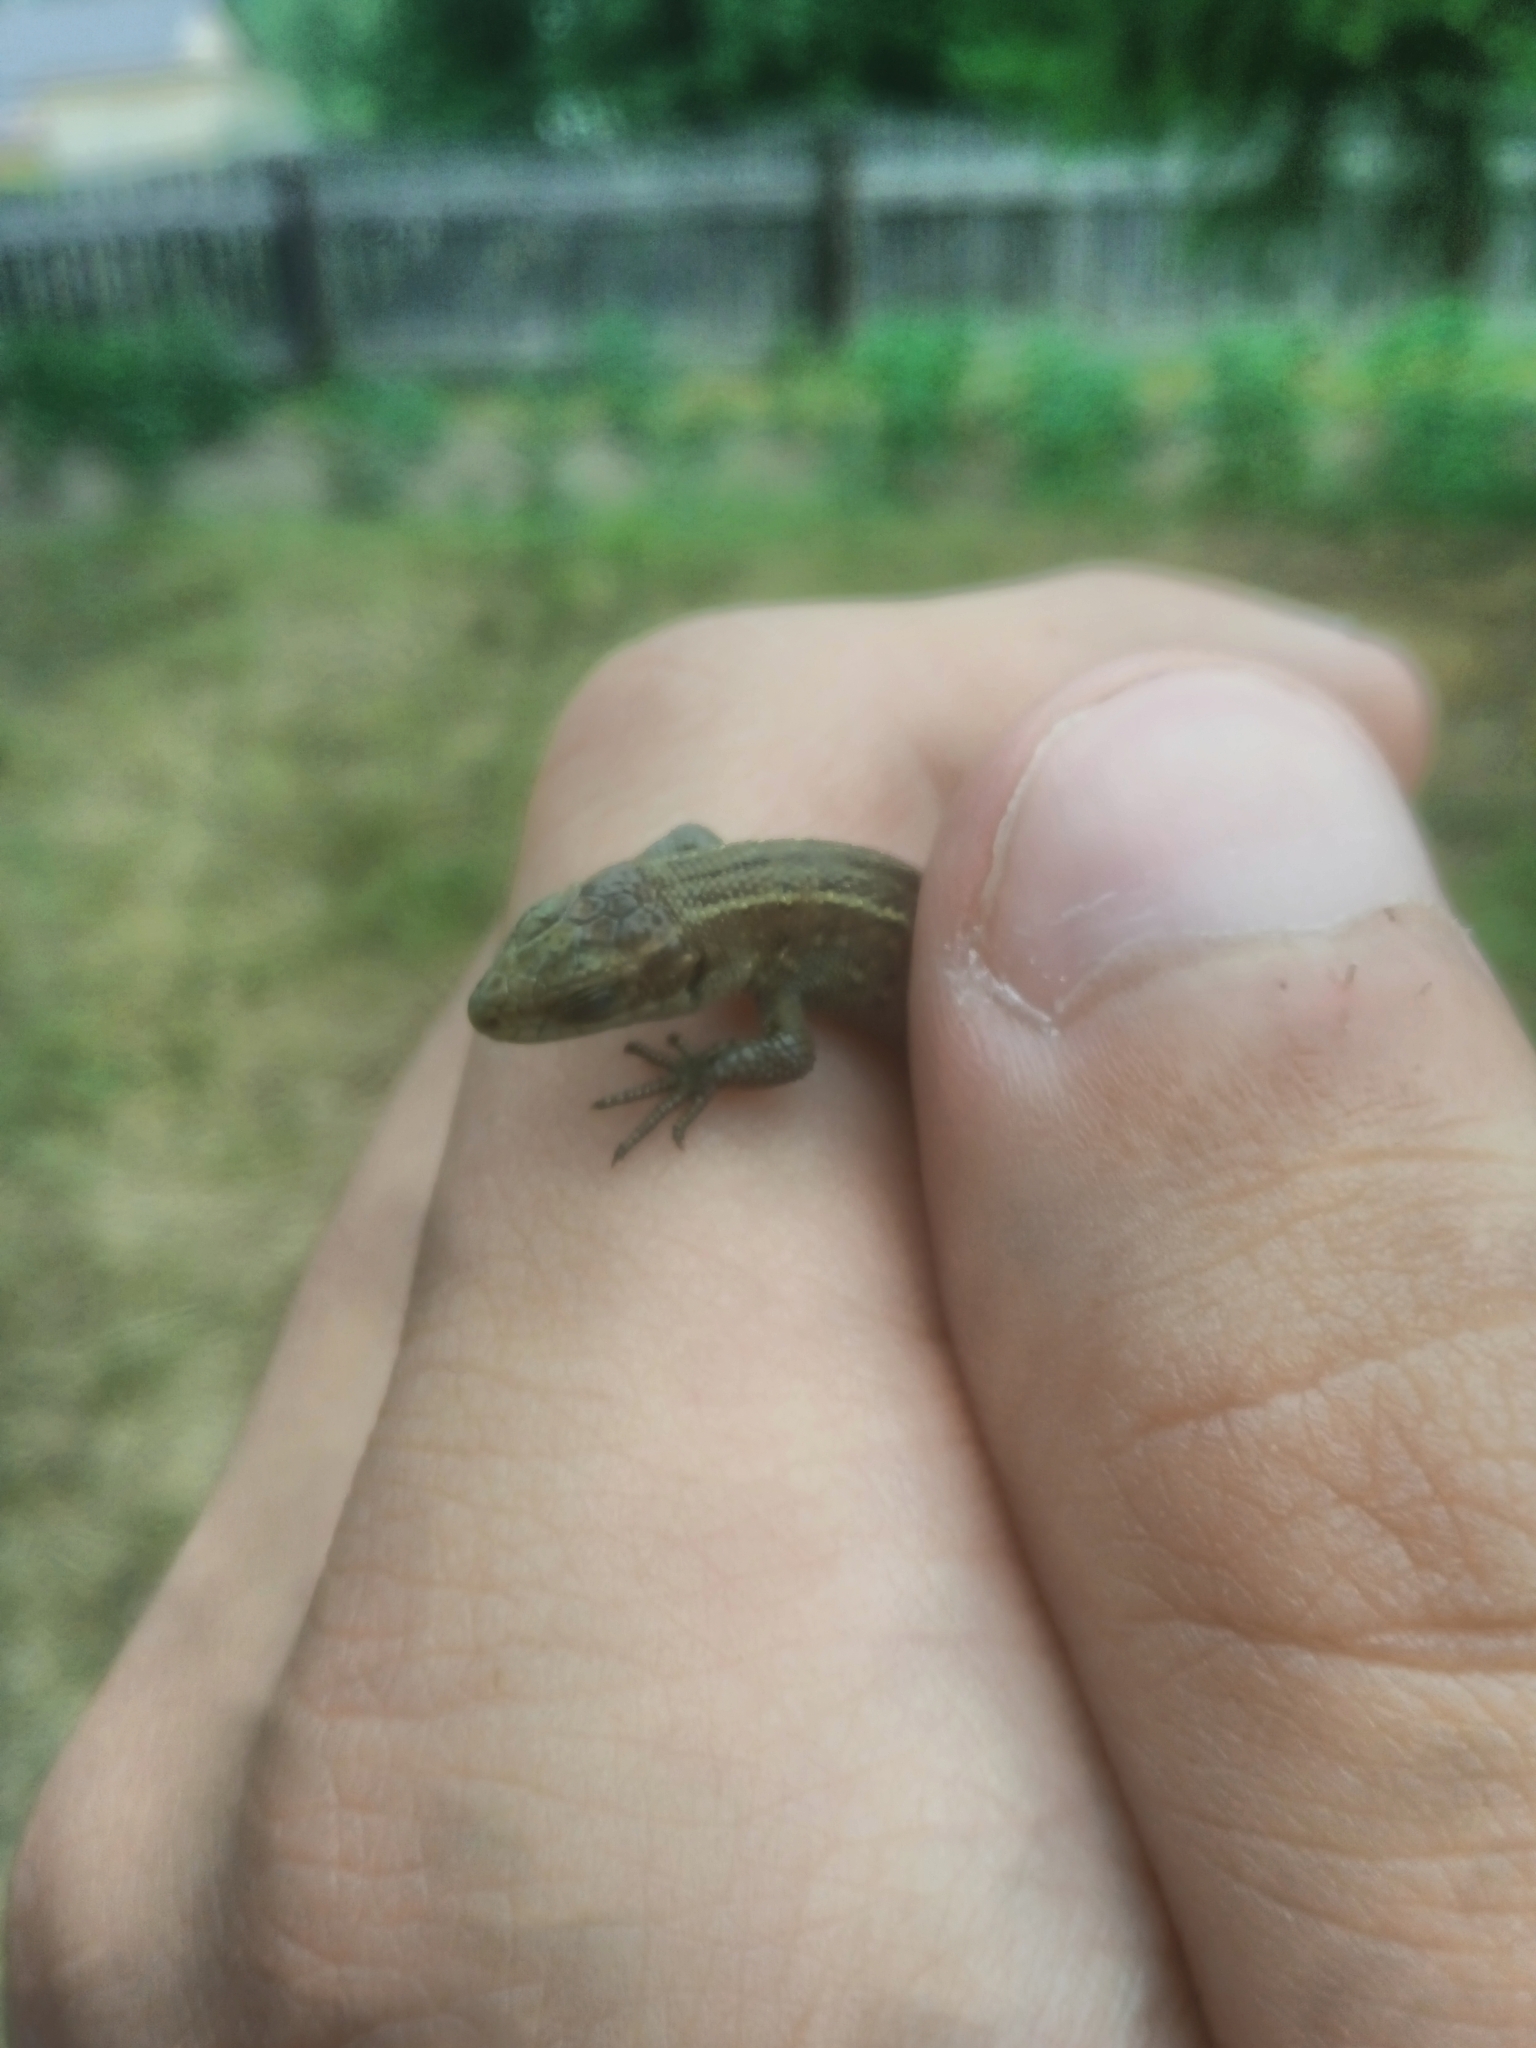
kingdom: Animalia
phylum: Chordata
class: Squamata
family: Lacertidae
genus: Zootoca
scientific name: Zootoca vivipara
